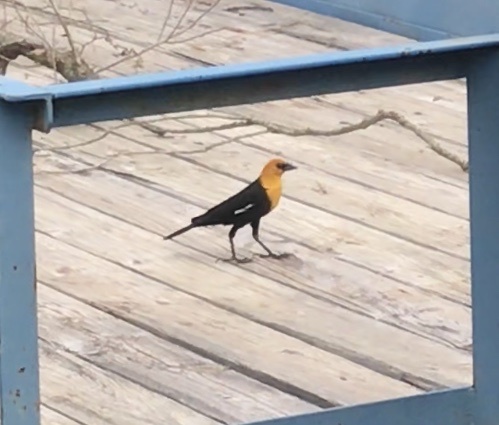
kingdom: Animalia
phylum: Chordata
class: Aves
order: Passeriformes
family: Icteridae
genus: Xanthocephalus
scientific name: Xanthocephalus xanthocephalus
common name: Yellow-headed blackbird
